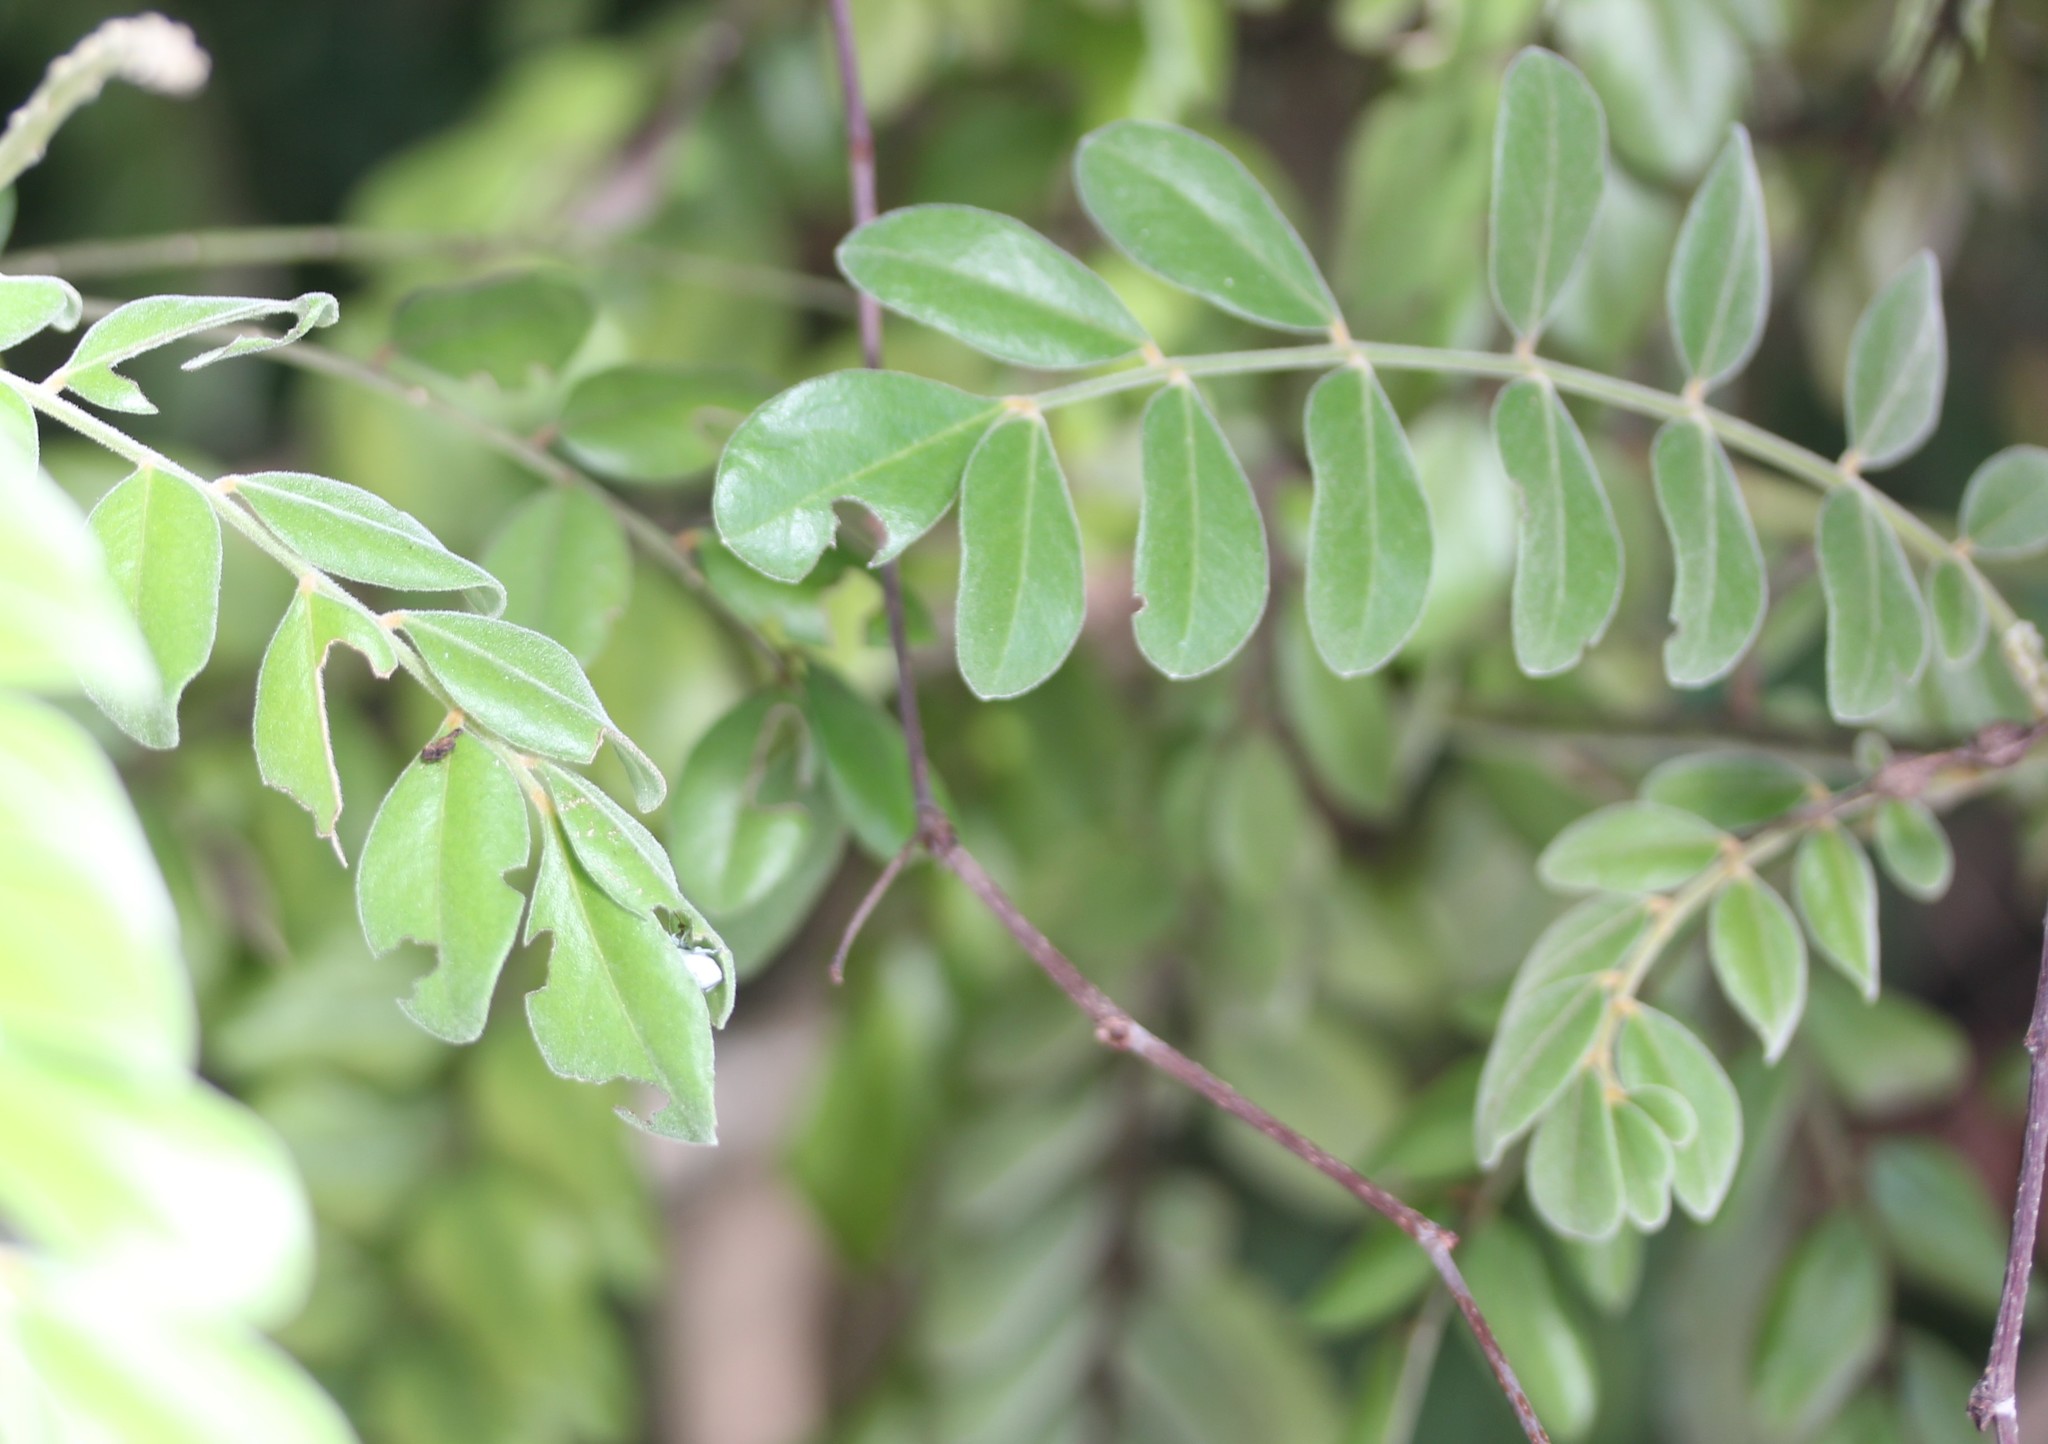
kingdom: Plantae
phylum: Tracheophyta
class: Magnoliopsida
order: Fabales
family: Fabaceae
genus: Sophora
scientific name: Sophora tomentosa
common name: Yellow necklacepod
